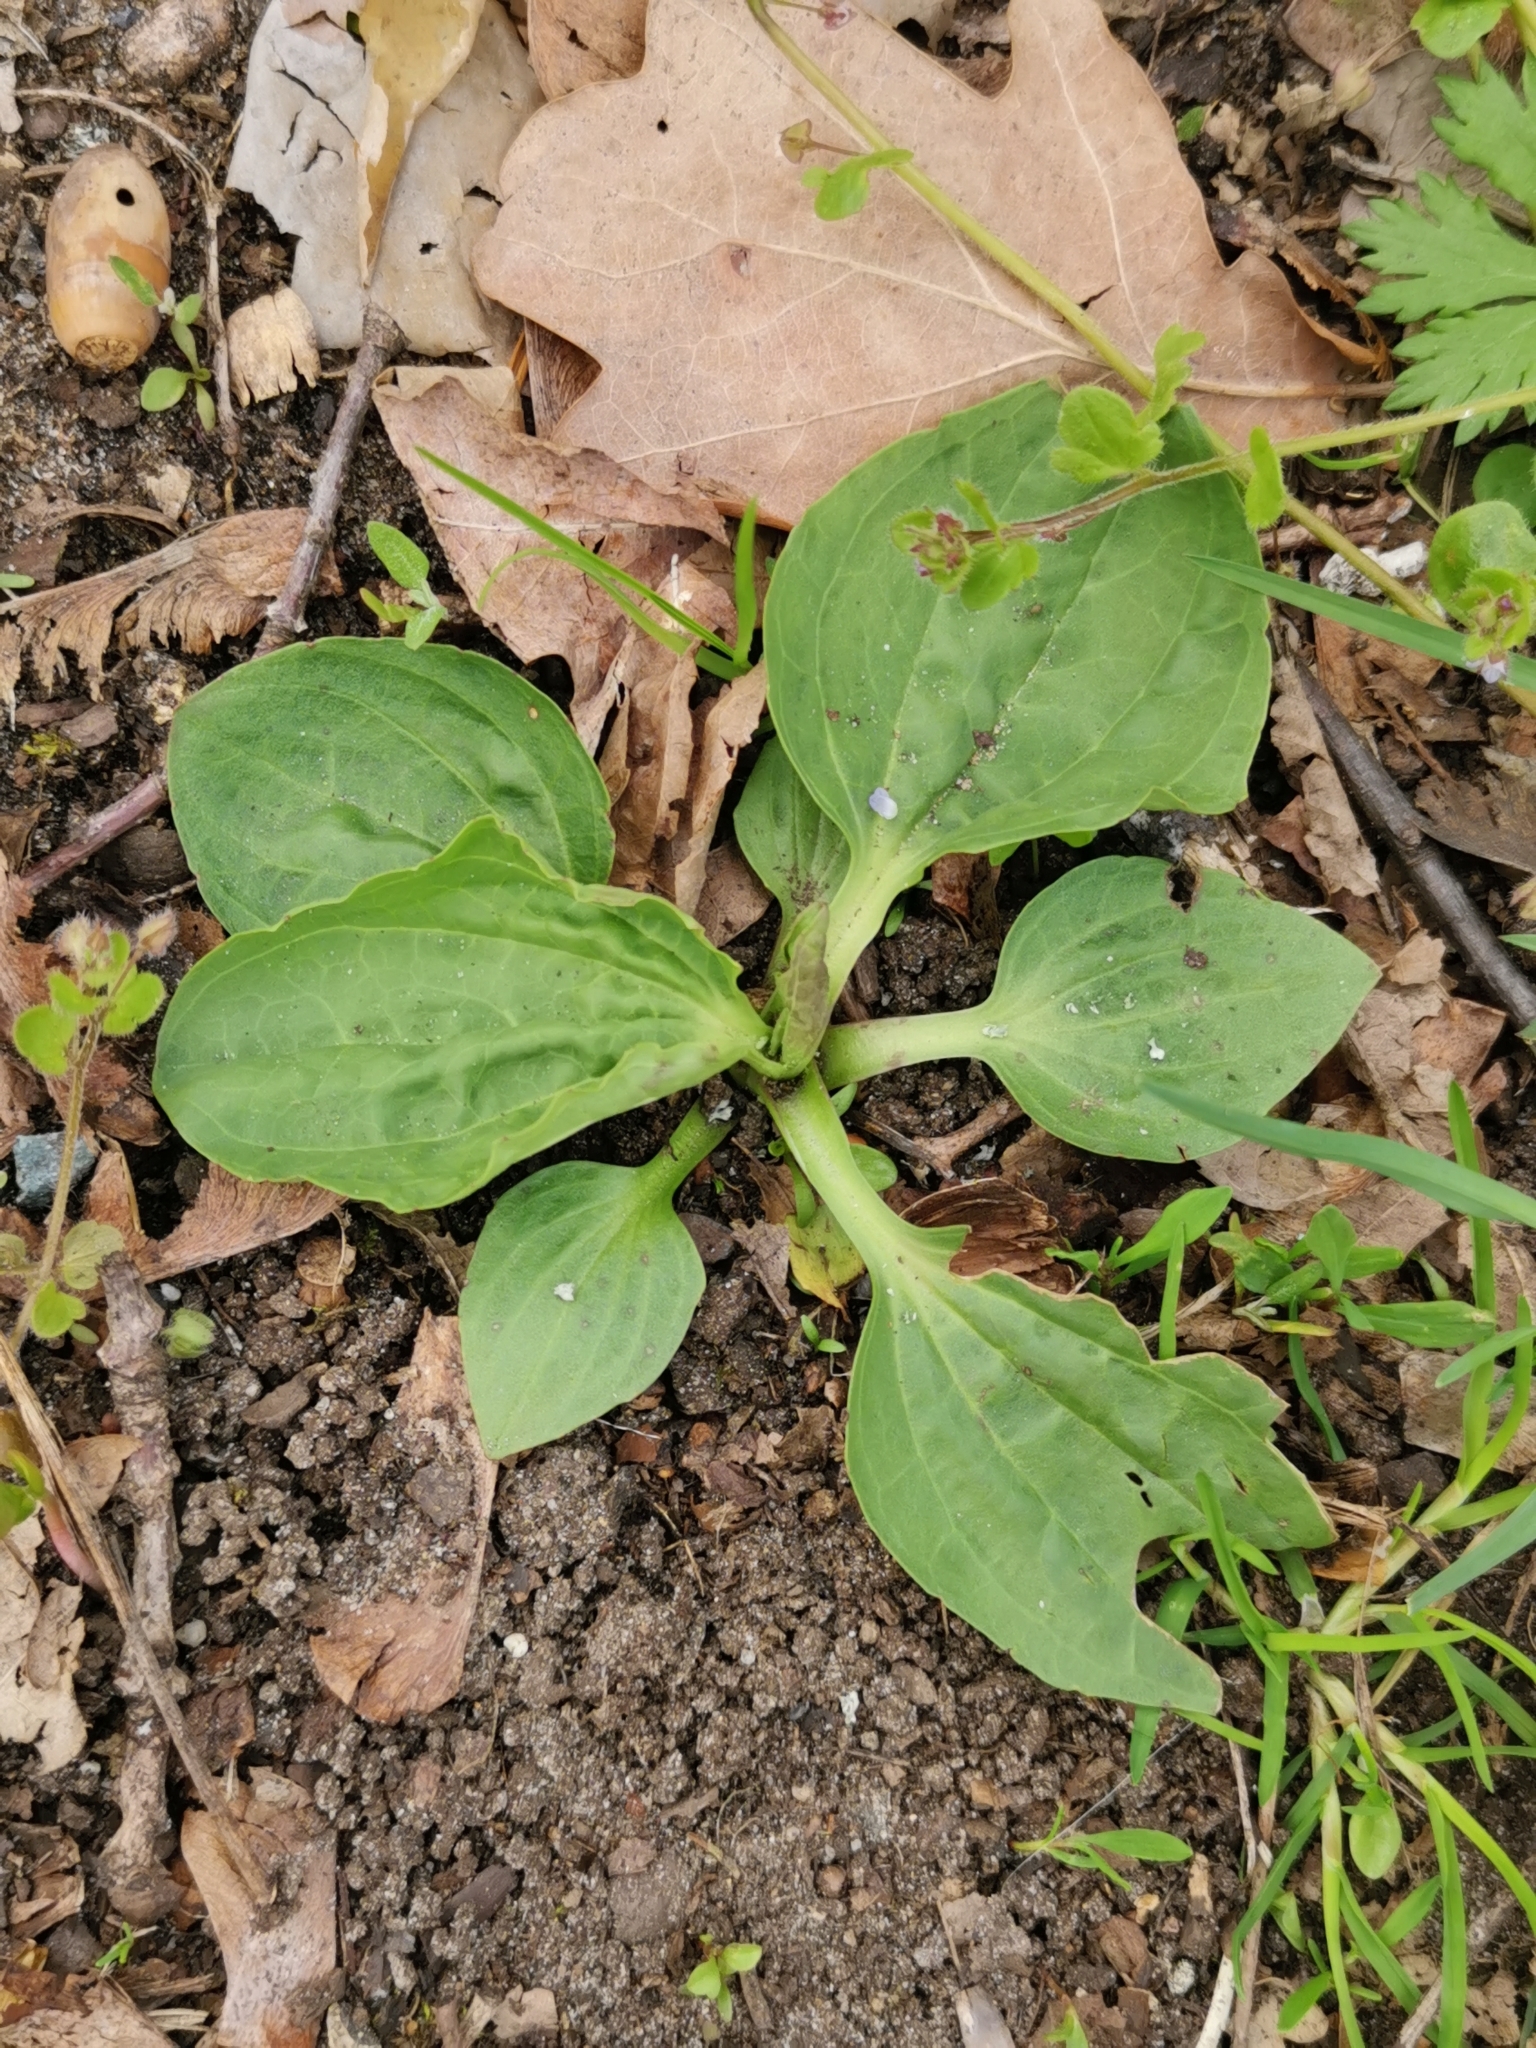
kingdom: Plantae
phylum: Tracheophyta
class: Magnoliopsida
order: Lamiales
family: Plantaginaceae
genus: Plantago
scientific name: Plantago major
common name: Common plantain
